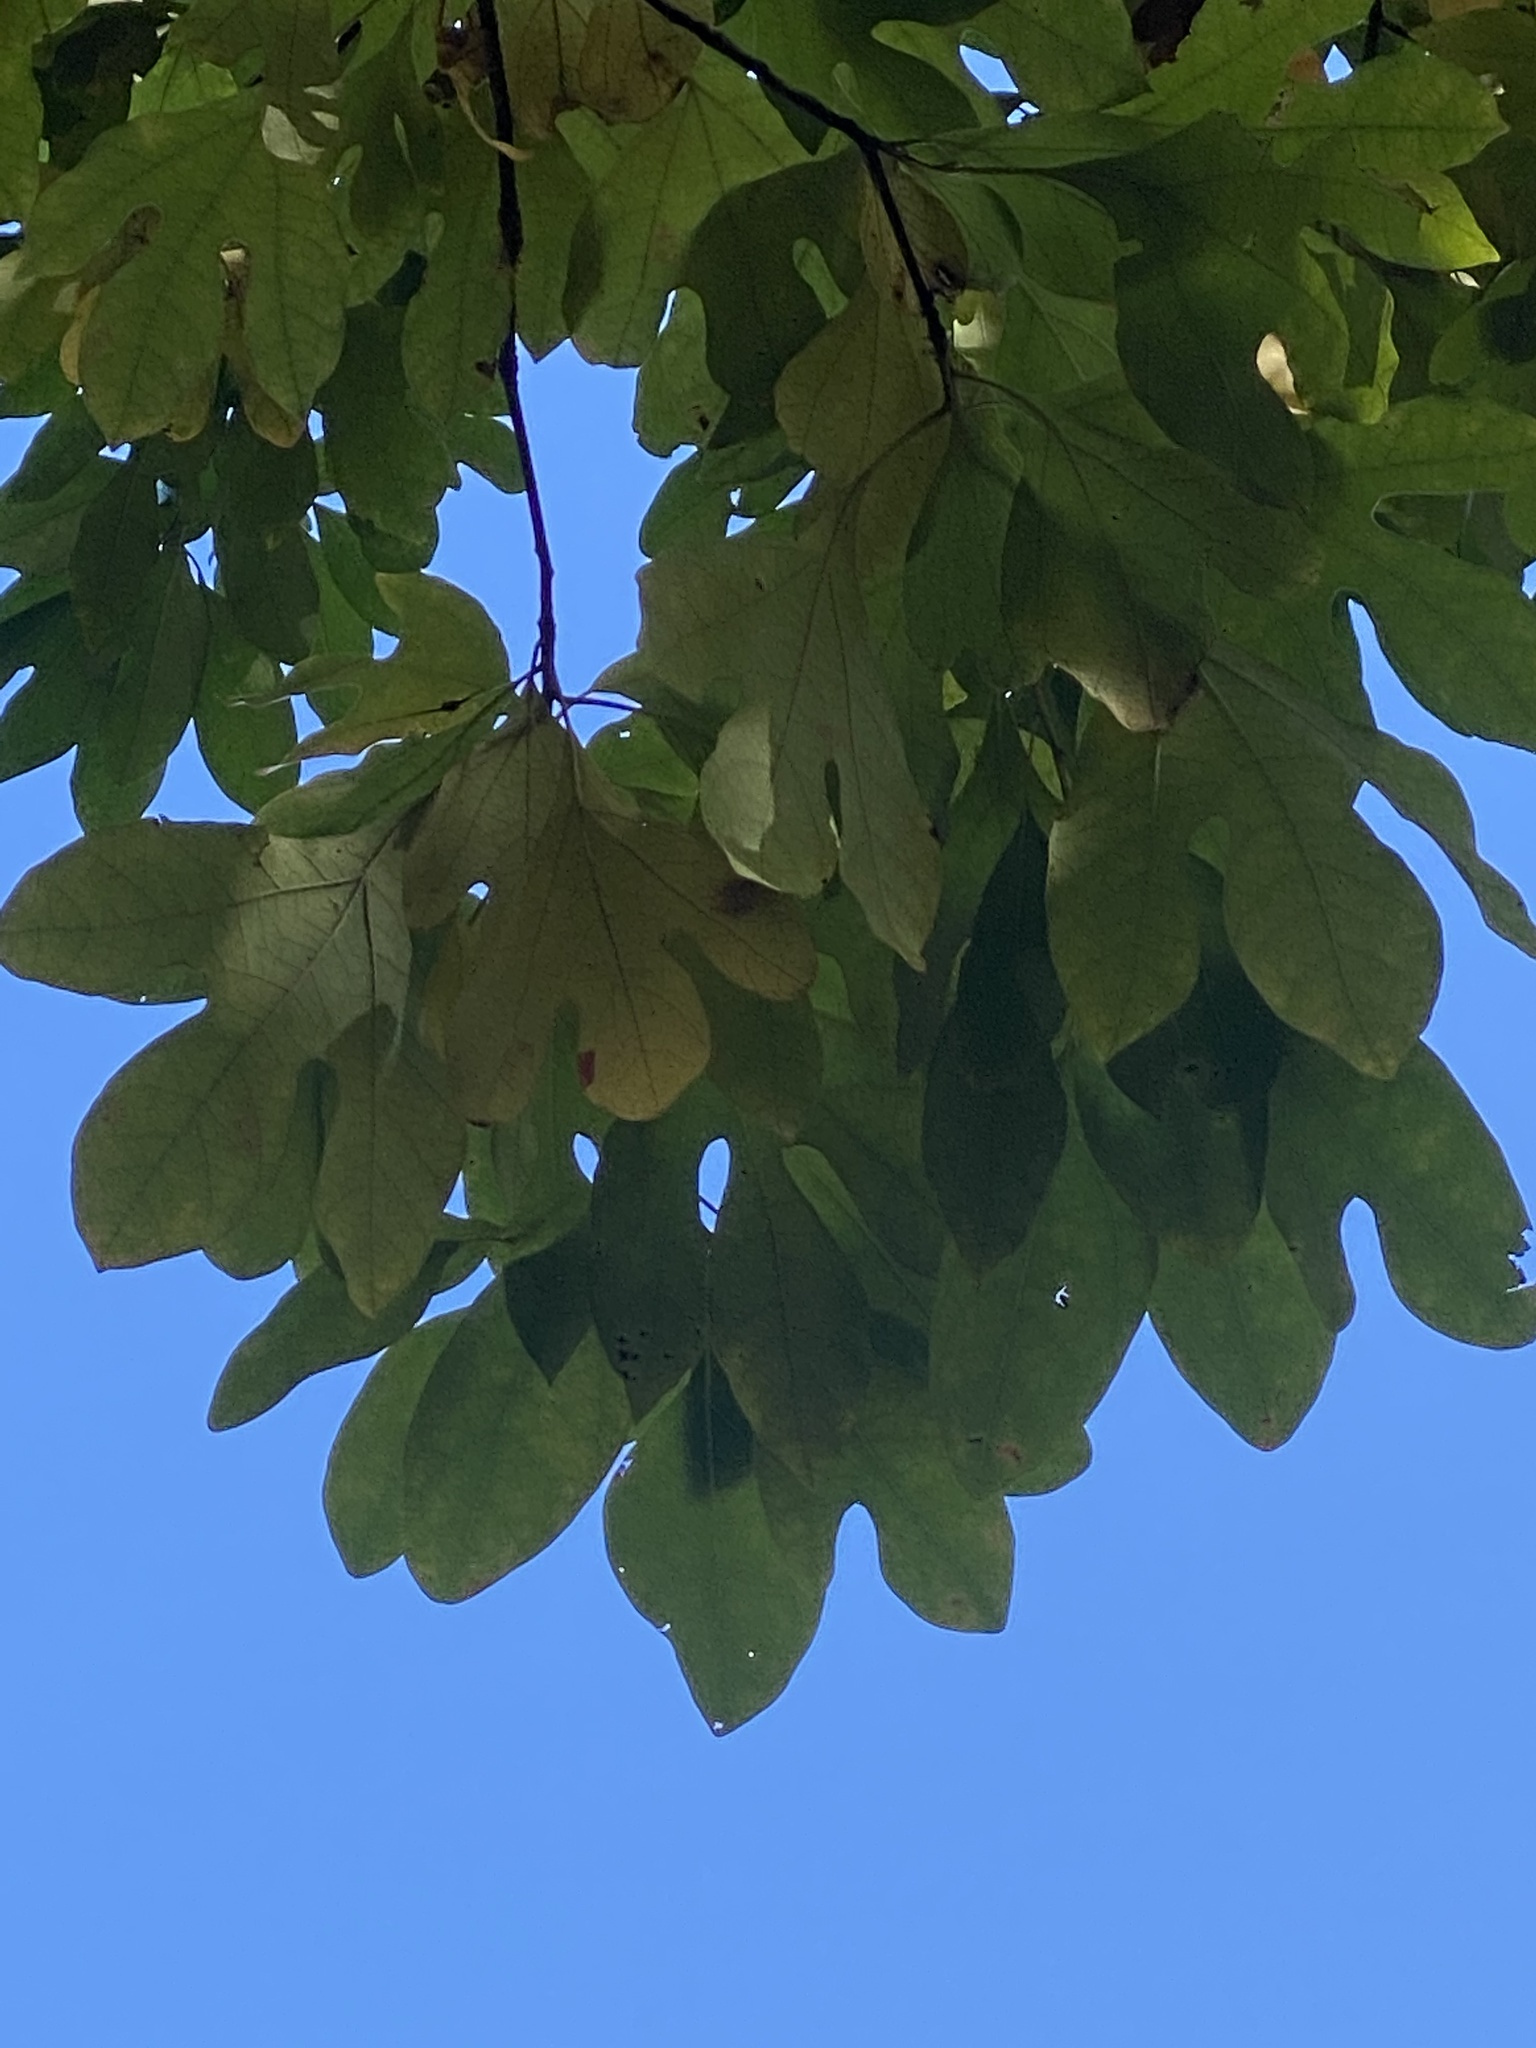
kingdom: Plantae
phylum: Tracheophyta
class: Magnoliopsida
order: Laurales
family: Lauraceae
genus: Sassafras
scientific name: Sassafras albidum
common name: Sassafras
